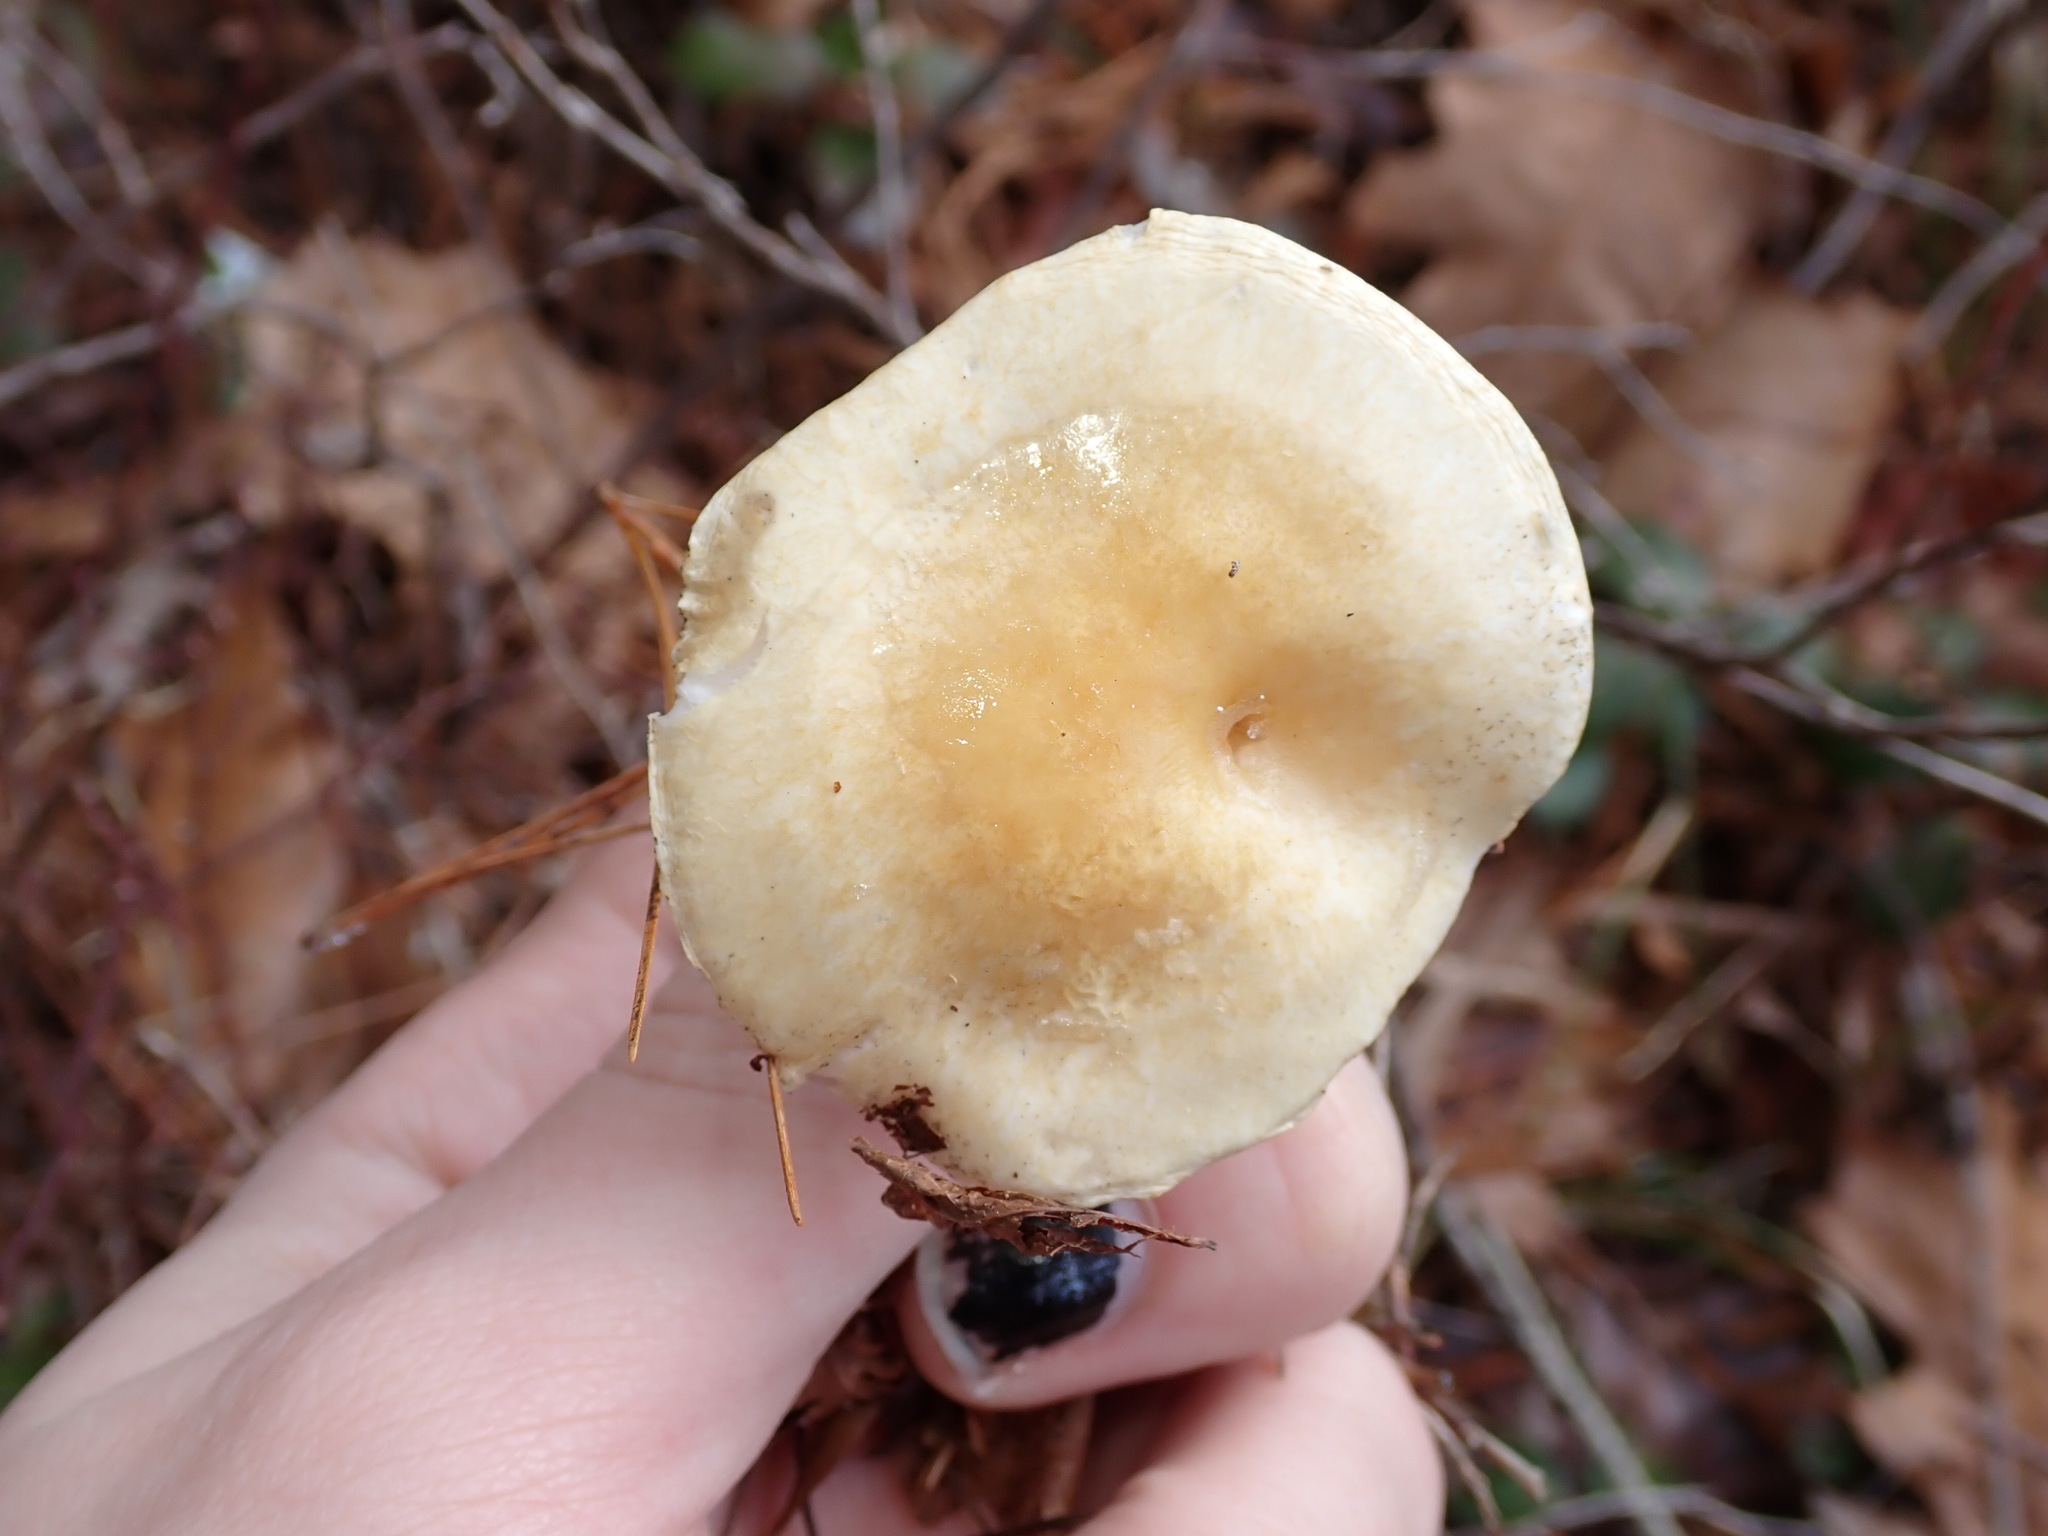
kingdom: Fungi
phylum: Basidiomycota
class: Agaricomycetes
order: Agaricales
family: Hygrophoraceae
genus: Hygrophorus
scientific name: Hygrophorus ligatus
